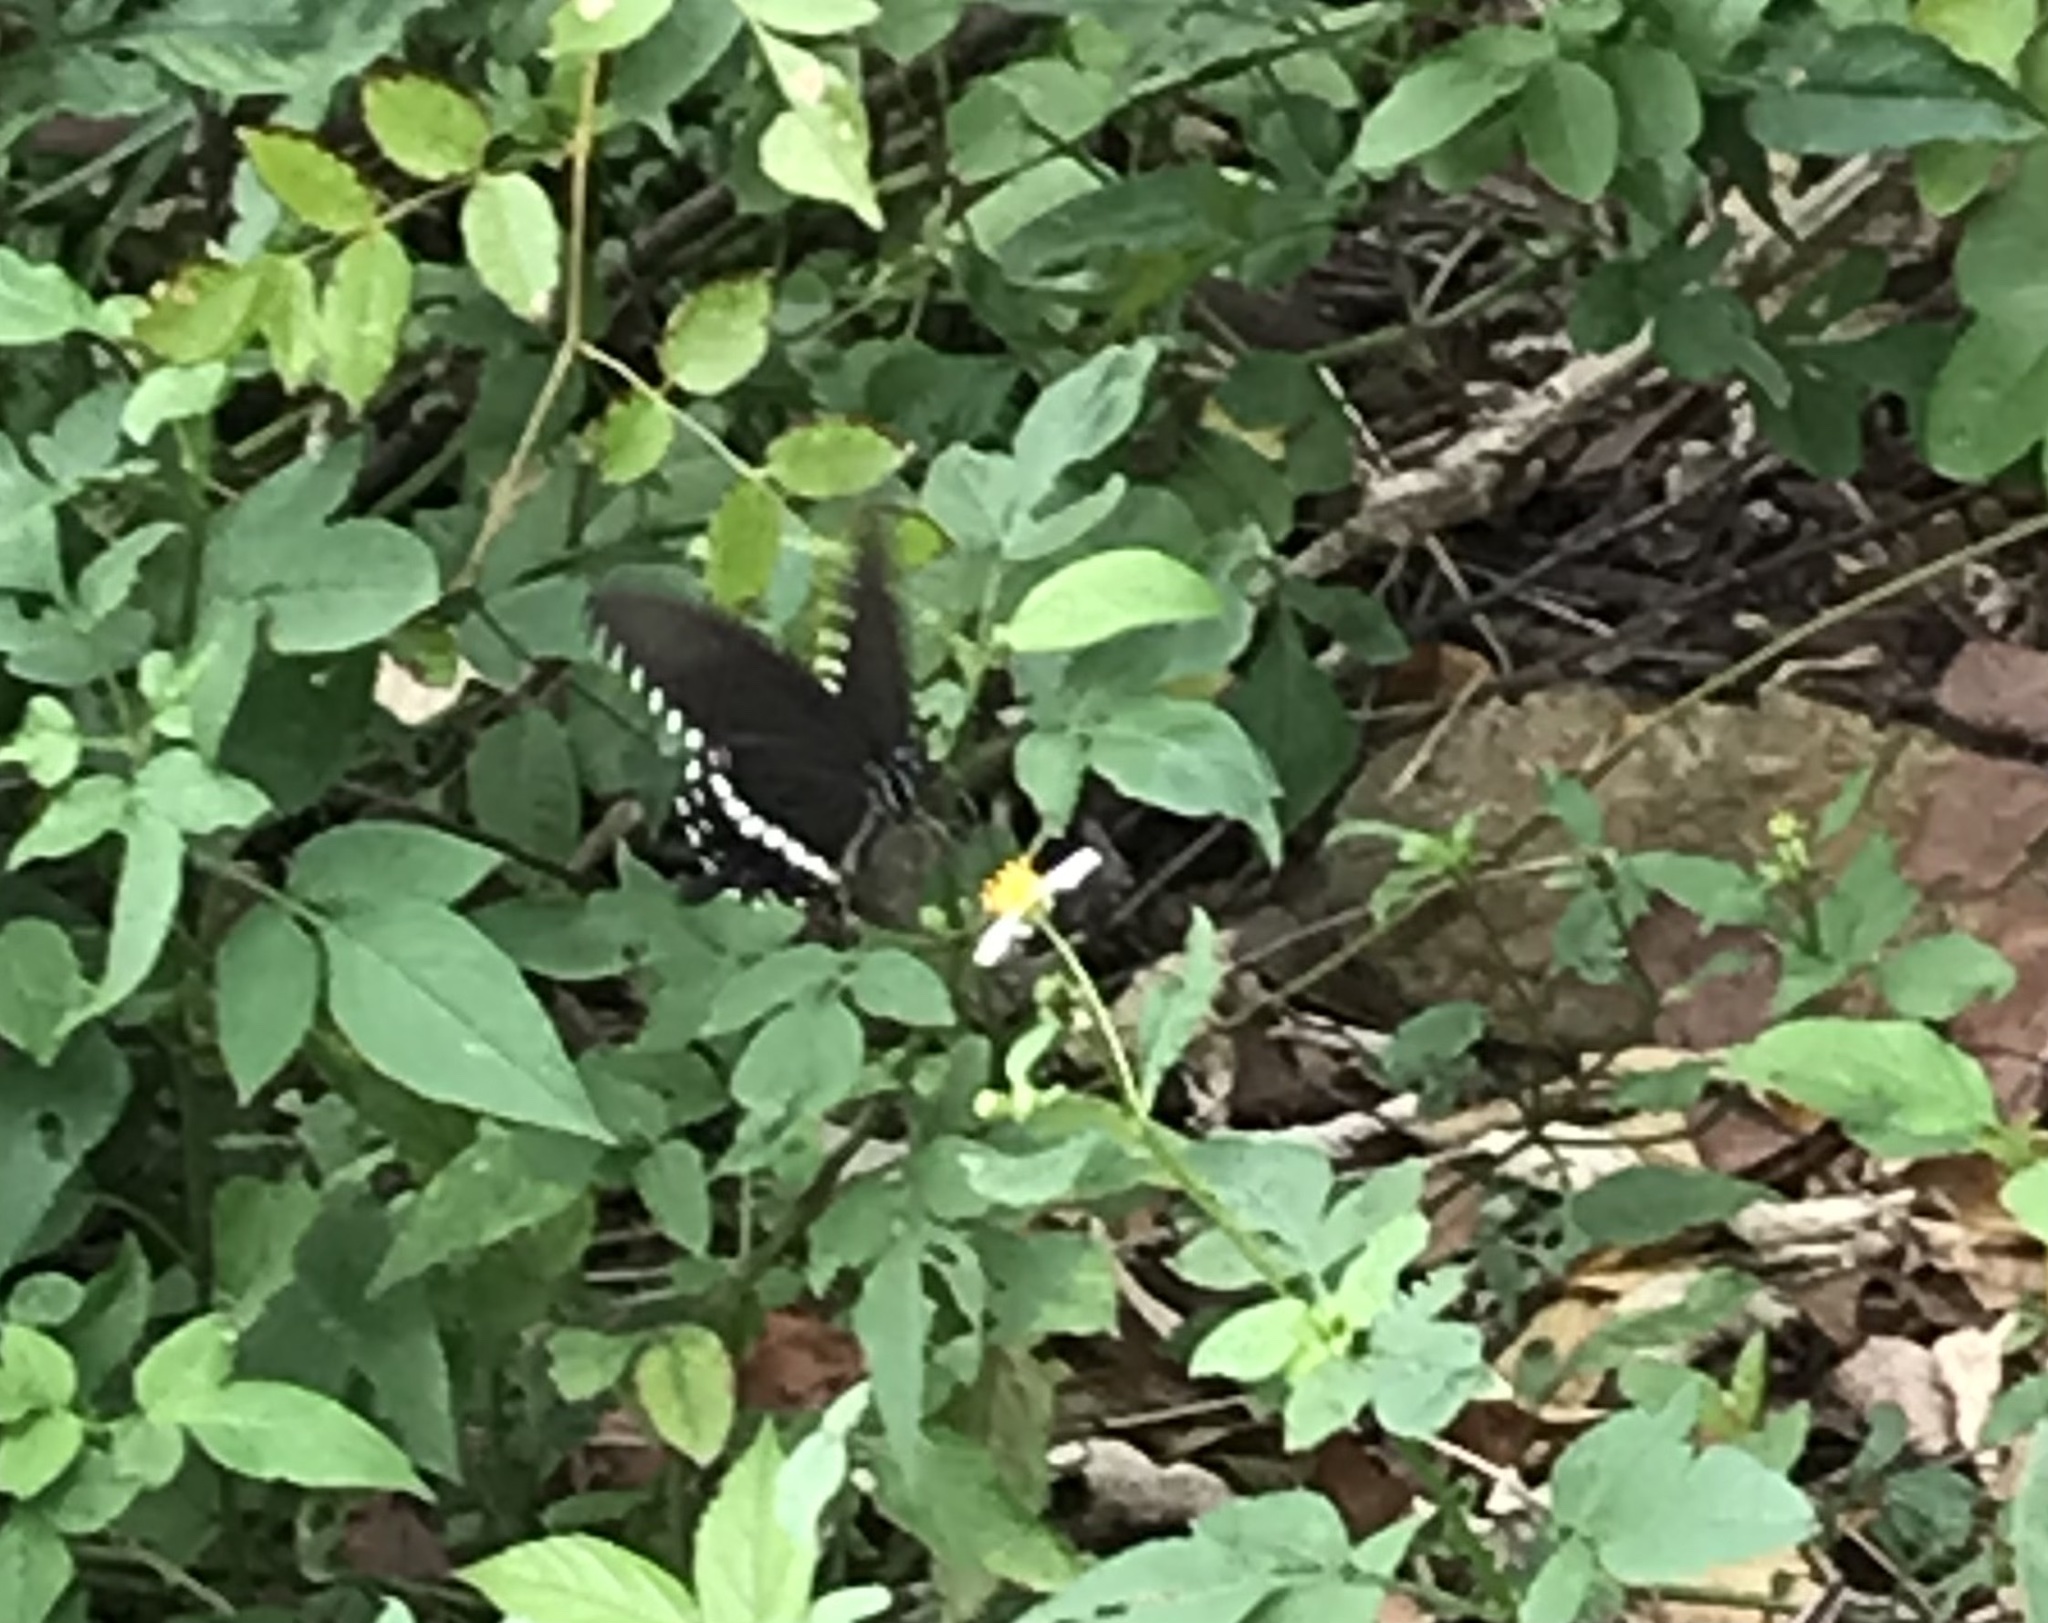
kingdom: Animalia
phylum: Arthropoda
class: Insecta
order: Lepidoptera
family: Papilionidae
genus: Papilio
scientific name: Papilio polytes
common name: Common mormon
